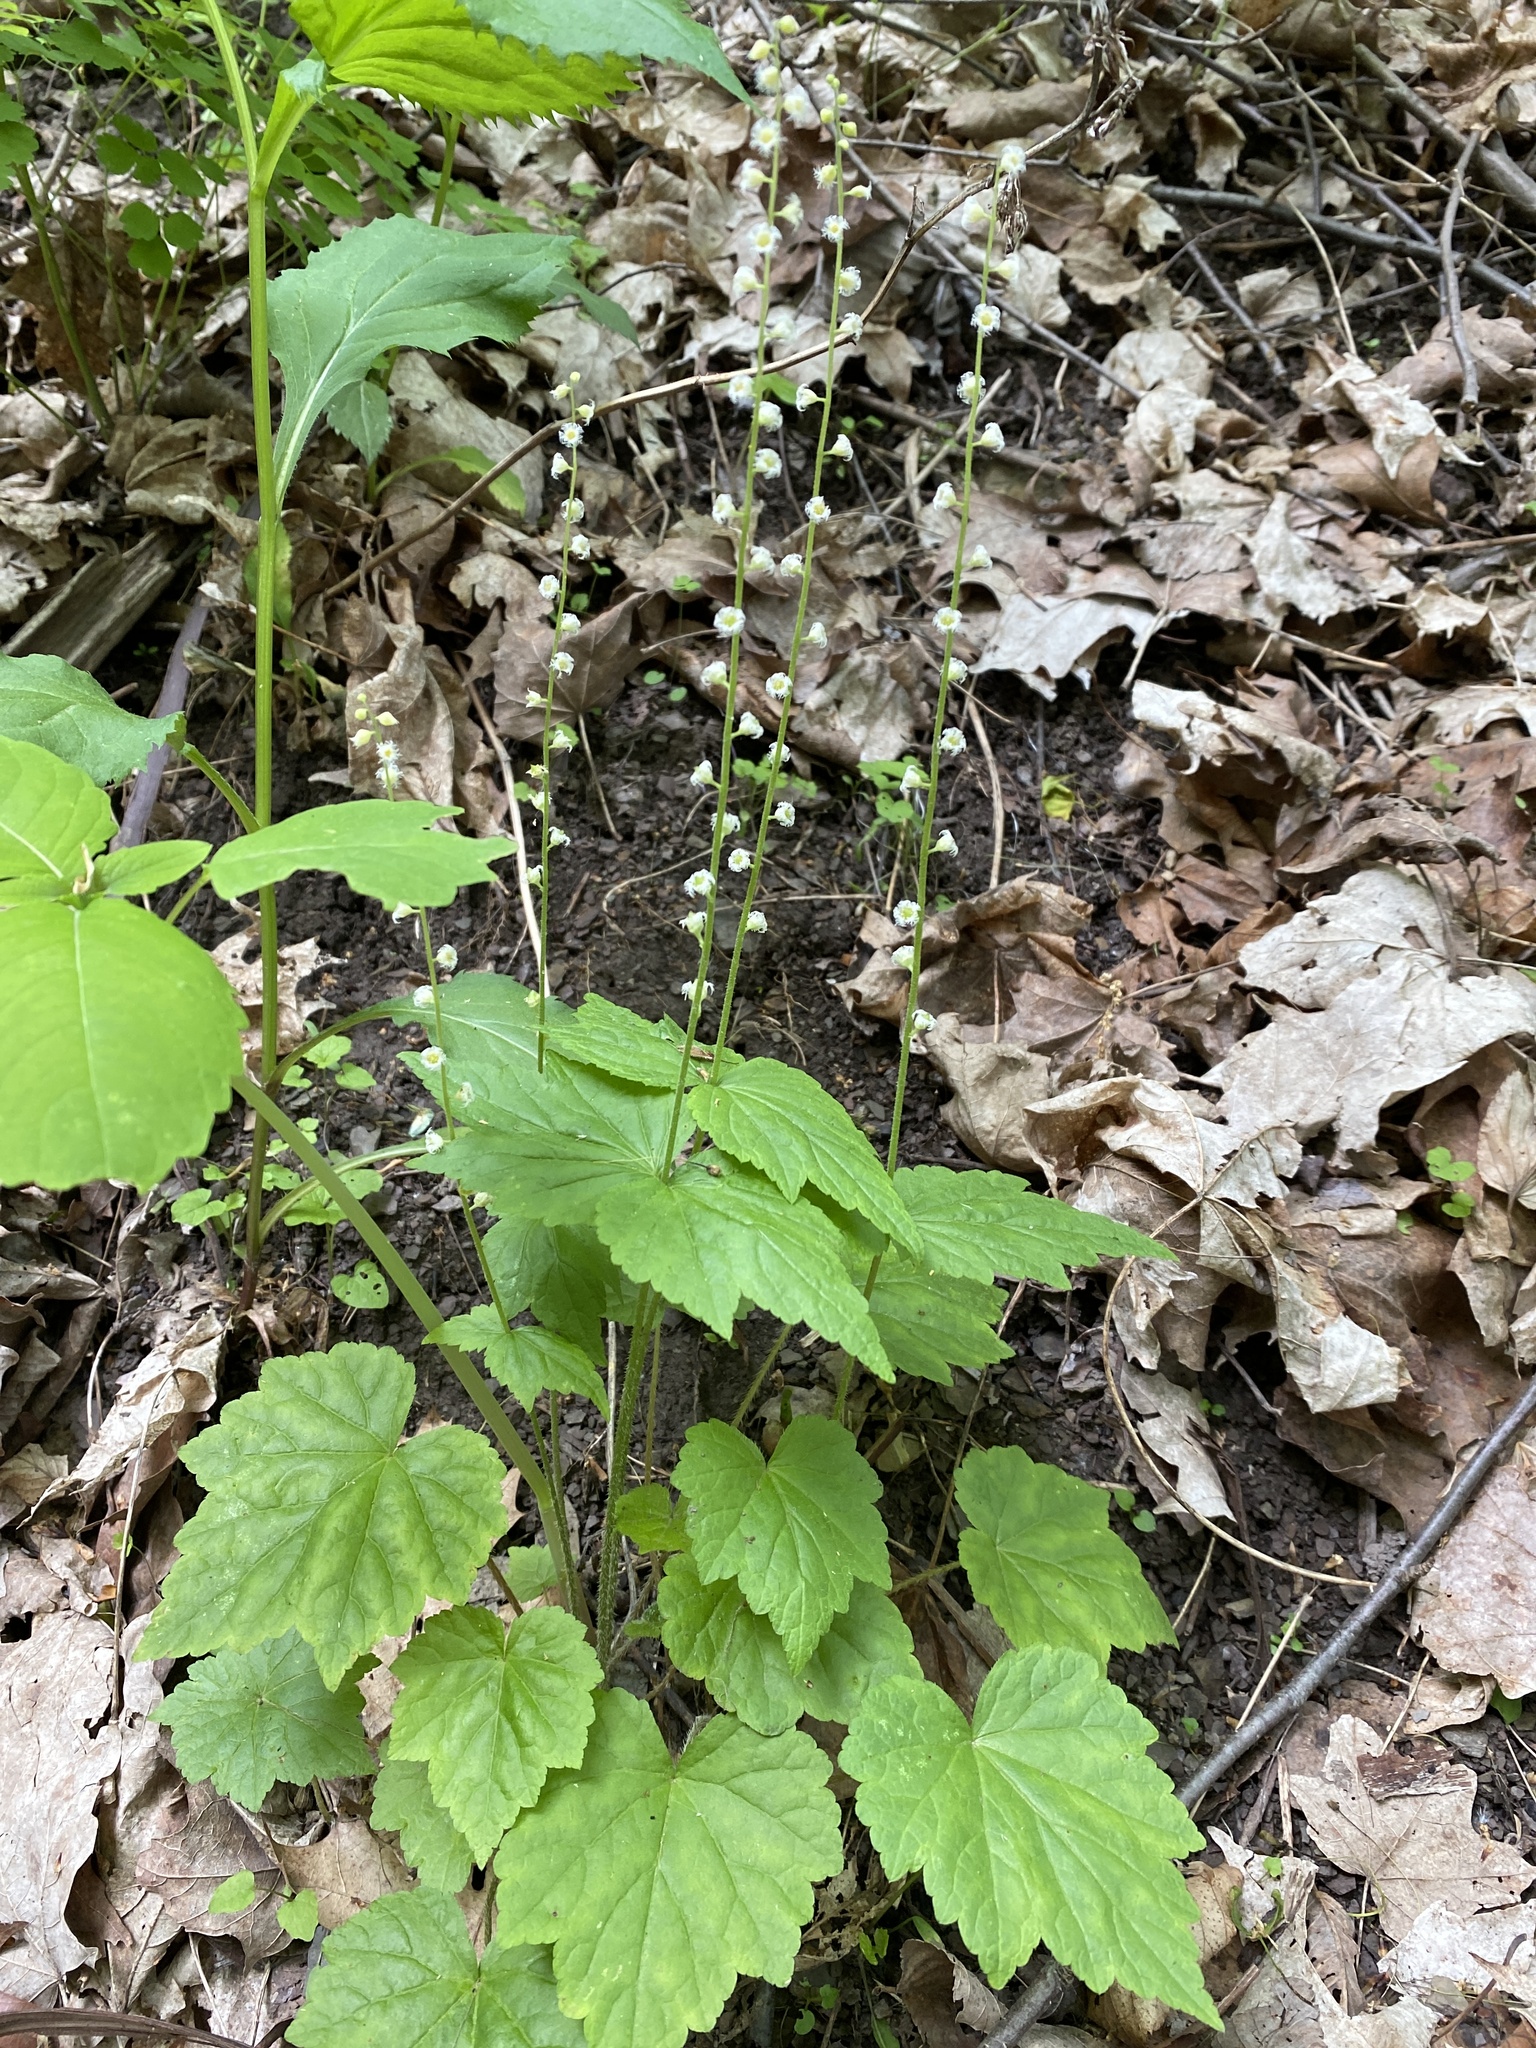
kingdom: Plantae
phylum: Tracheophyta
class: Magnoliopsida
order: Saxifragales
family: Saxifragaceae
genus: Mitella
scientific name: Mitella diphylla
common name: Coolwort
